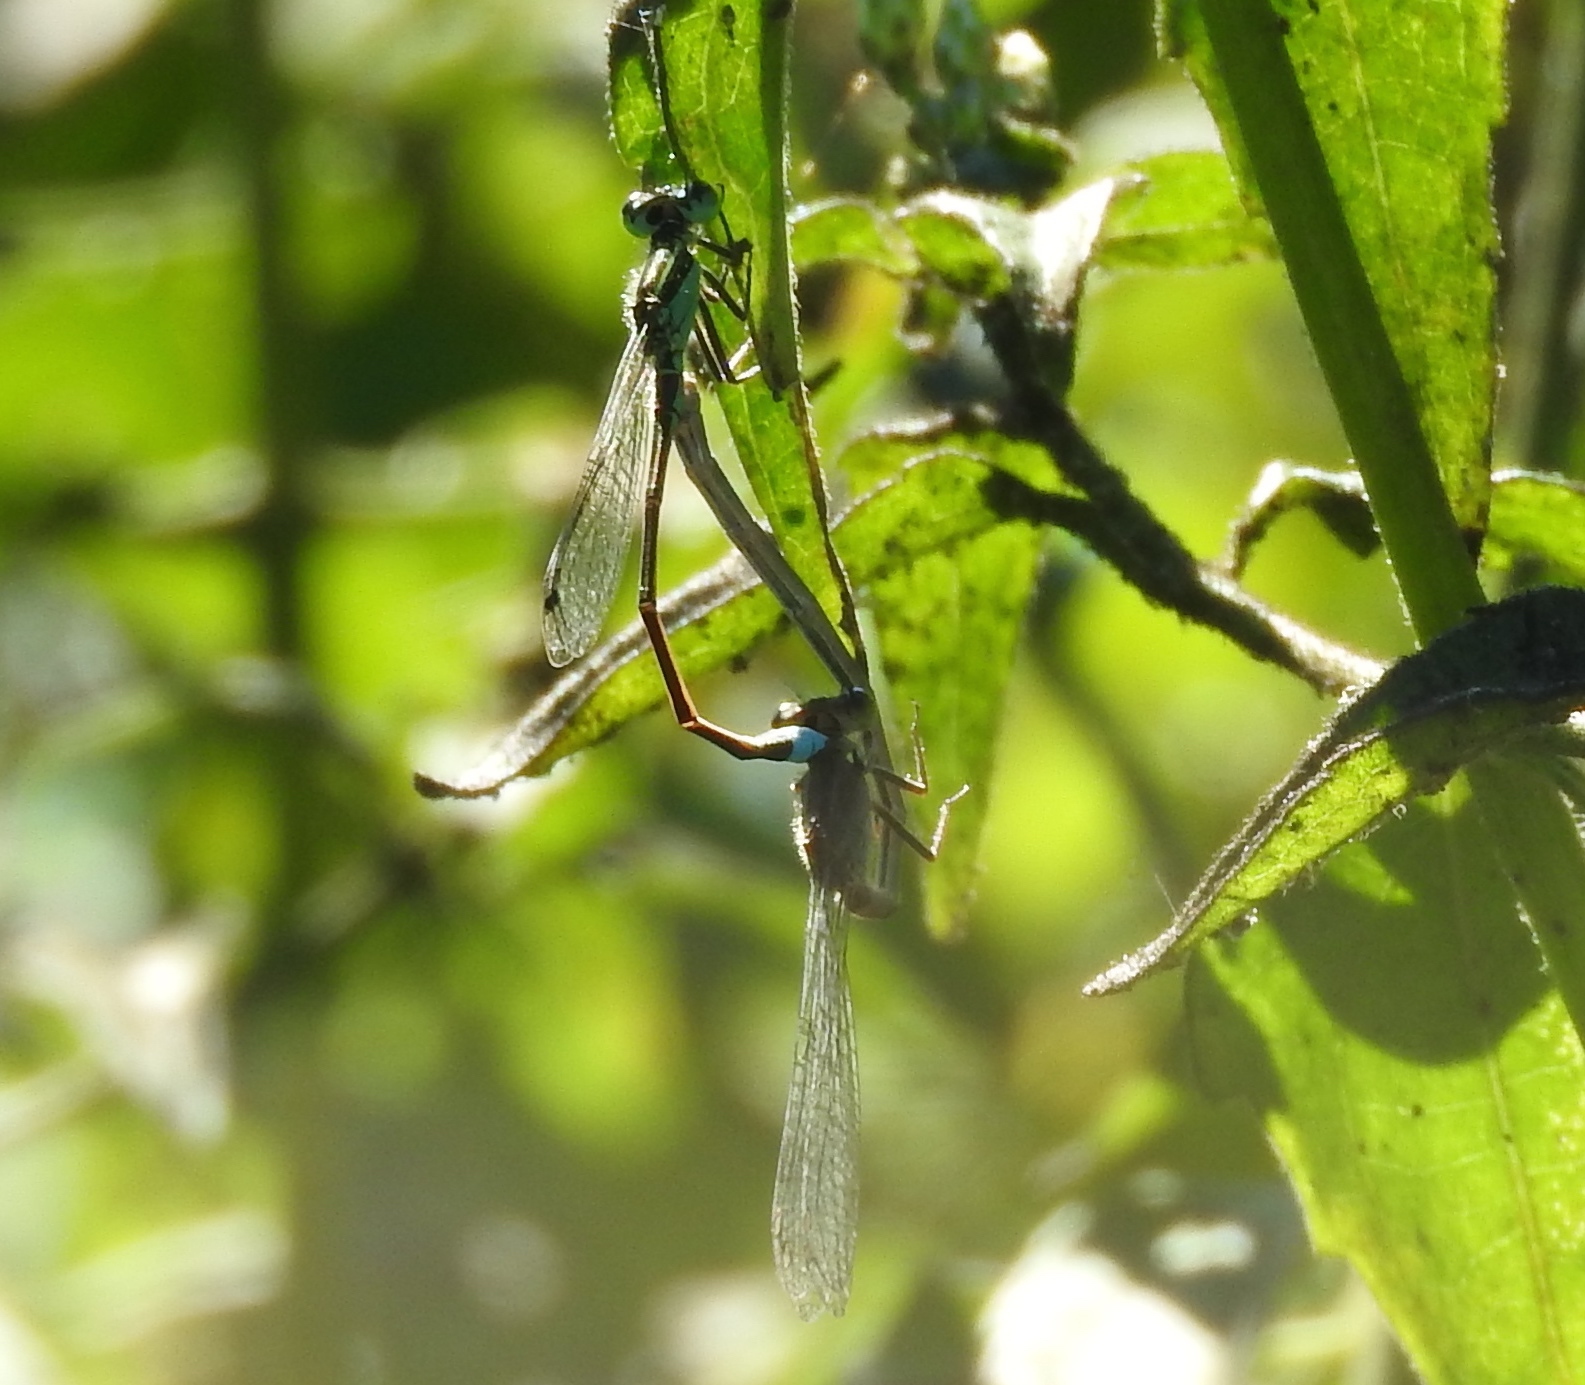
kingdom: Animalia
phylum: Arthropoda
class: Insecta
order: Odonata
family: Coenagrionidae
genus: Ischnura
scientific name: Ischnura
